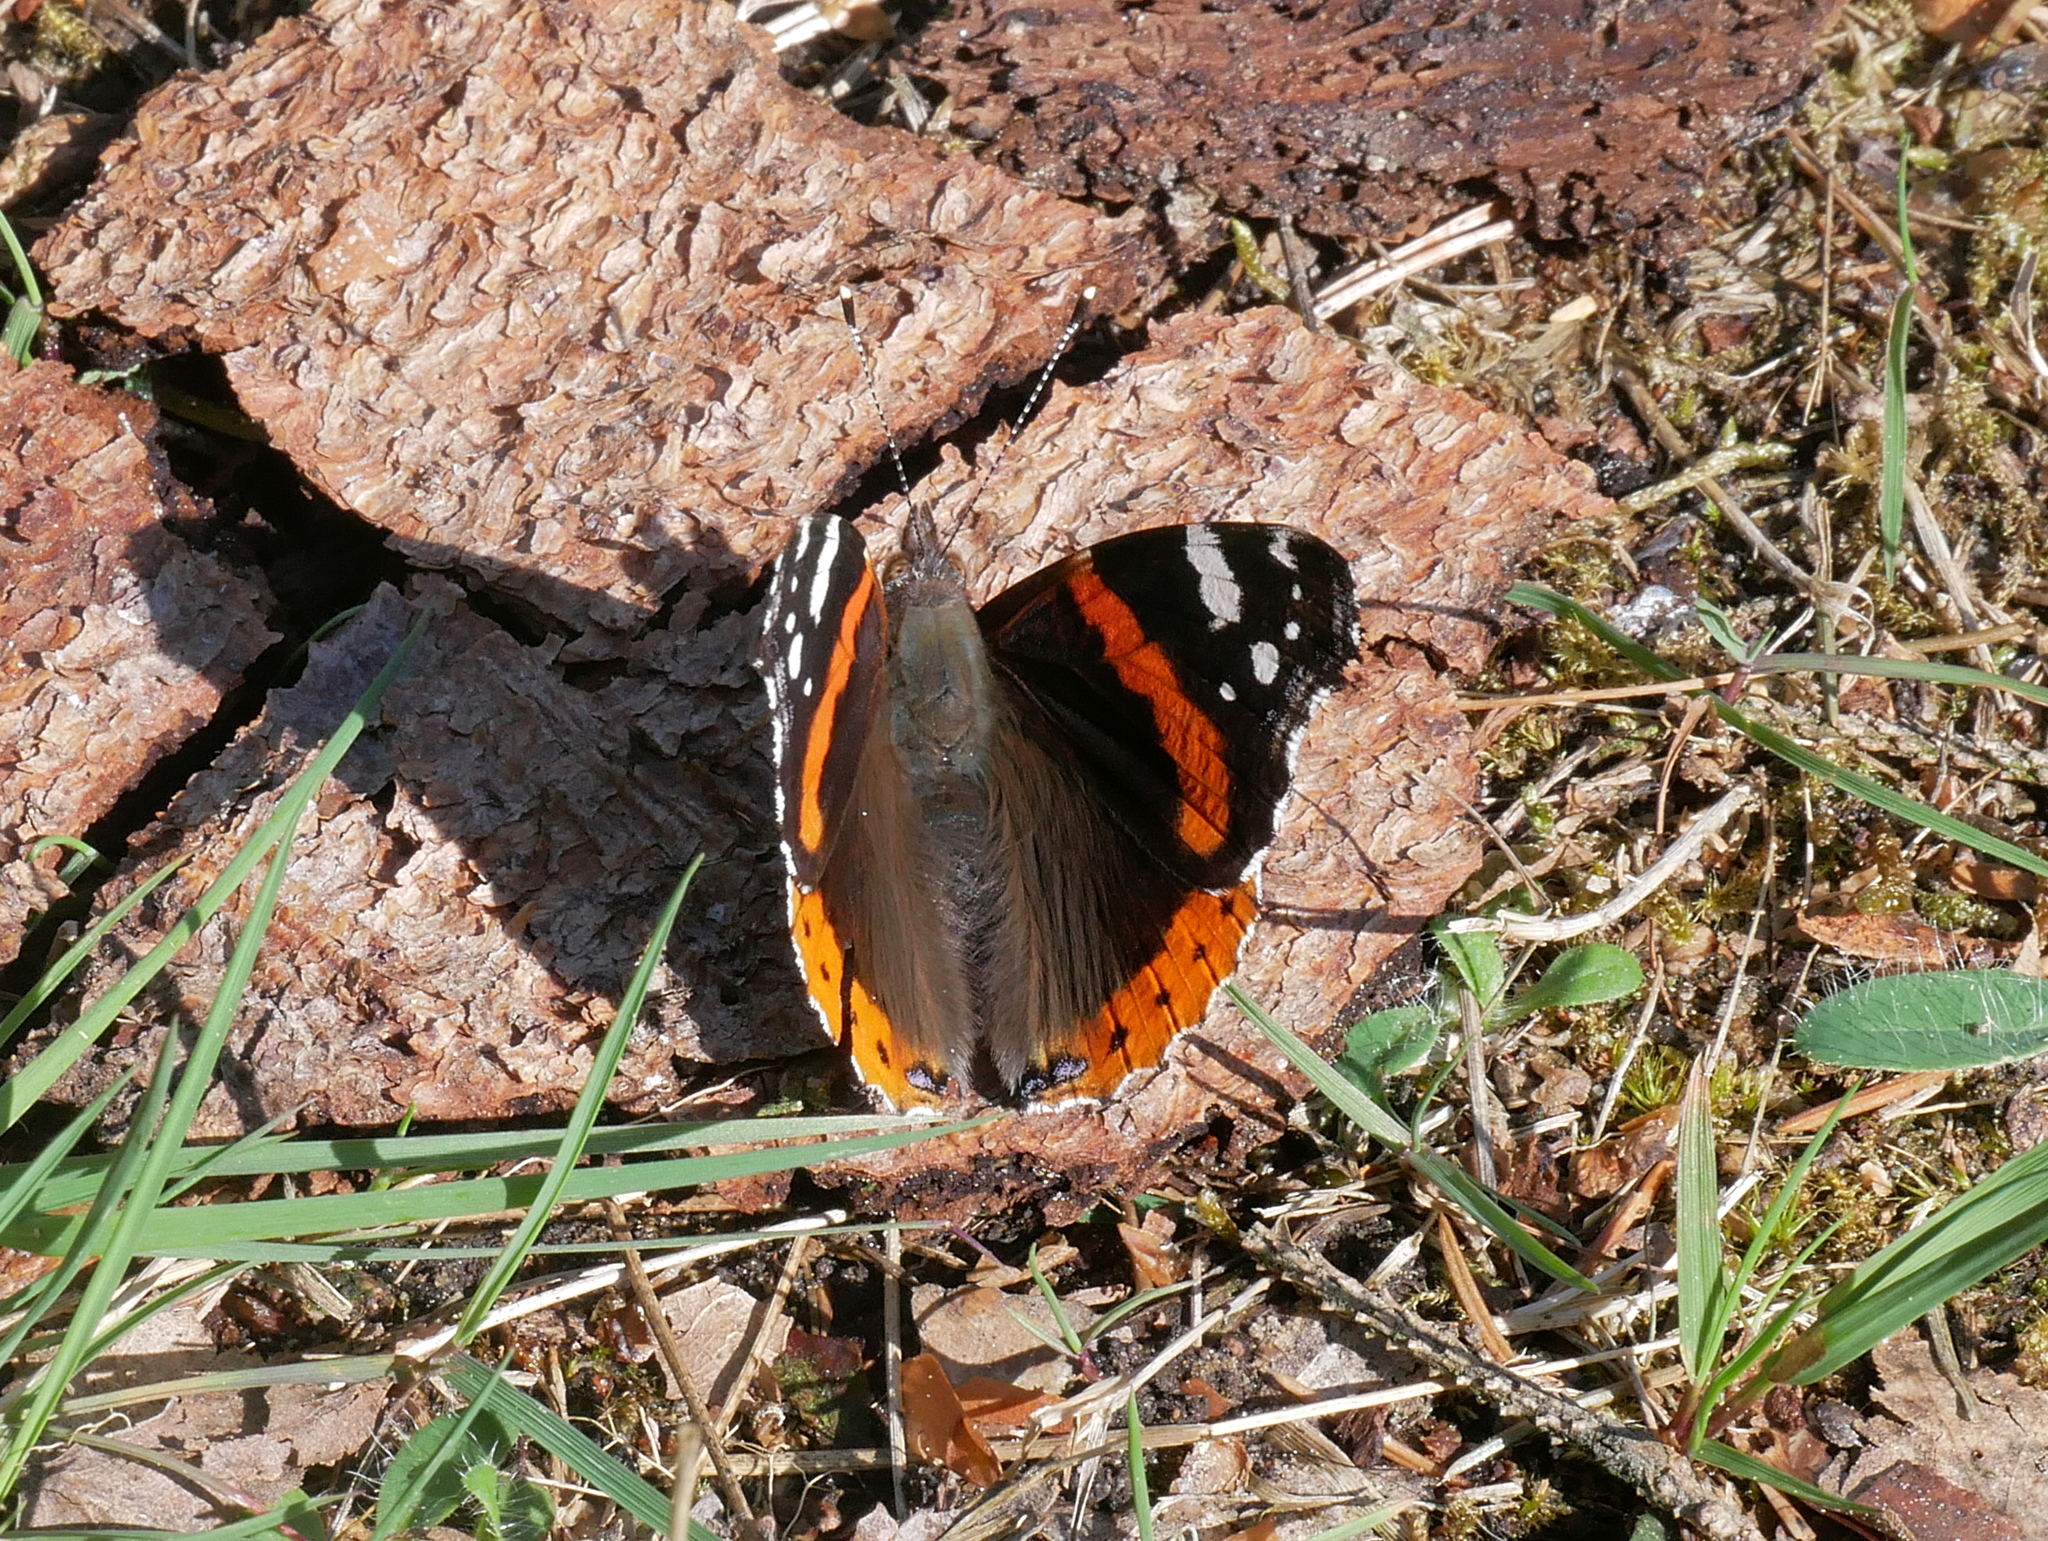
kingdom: Animalia
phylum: Arthropoda
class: Insecta
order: Lepidoptera
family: Nymphalidae
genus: Vanessa
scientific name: Vanessa atalanta
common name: Red admiral
